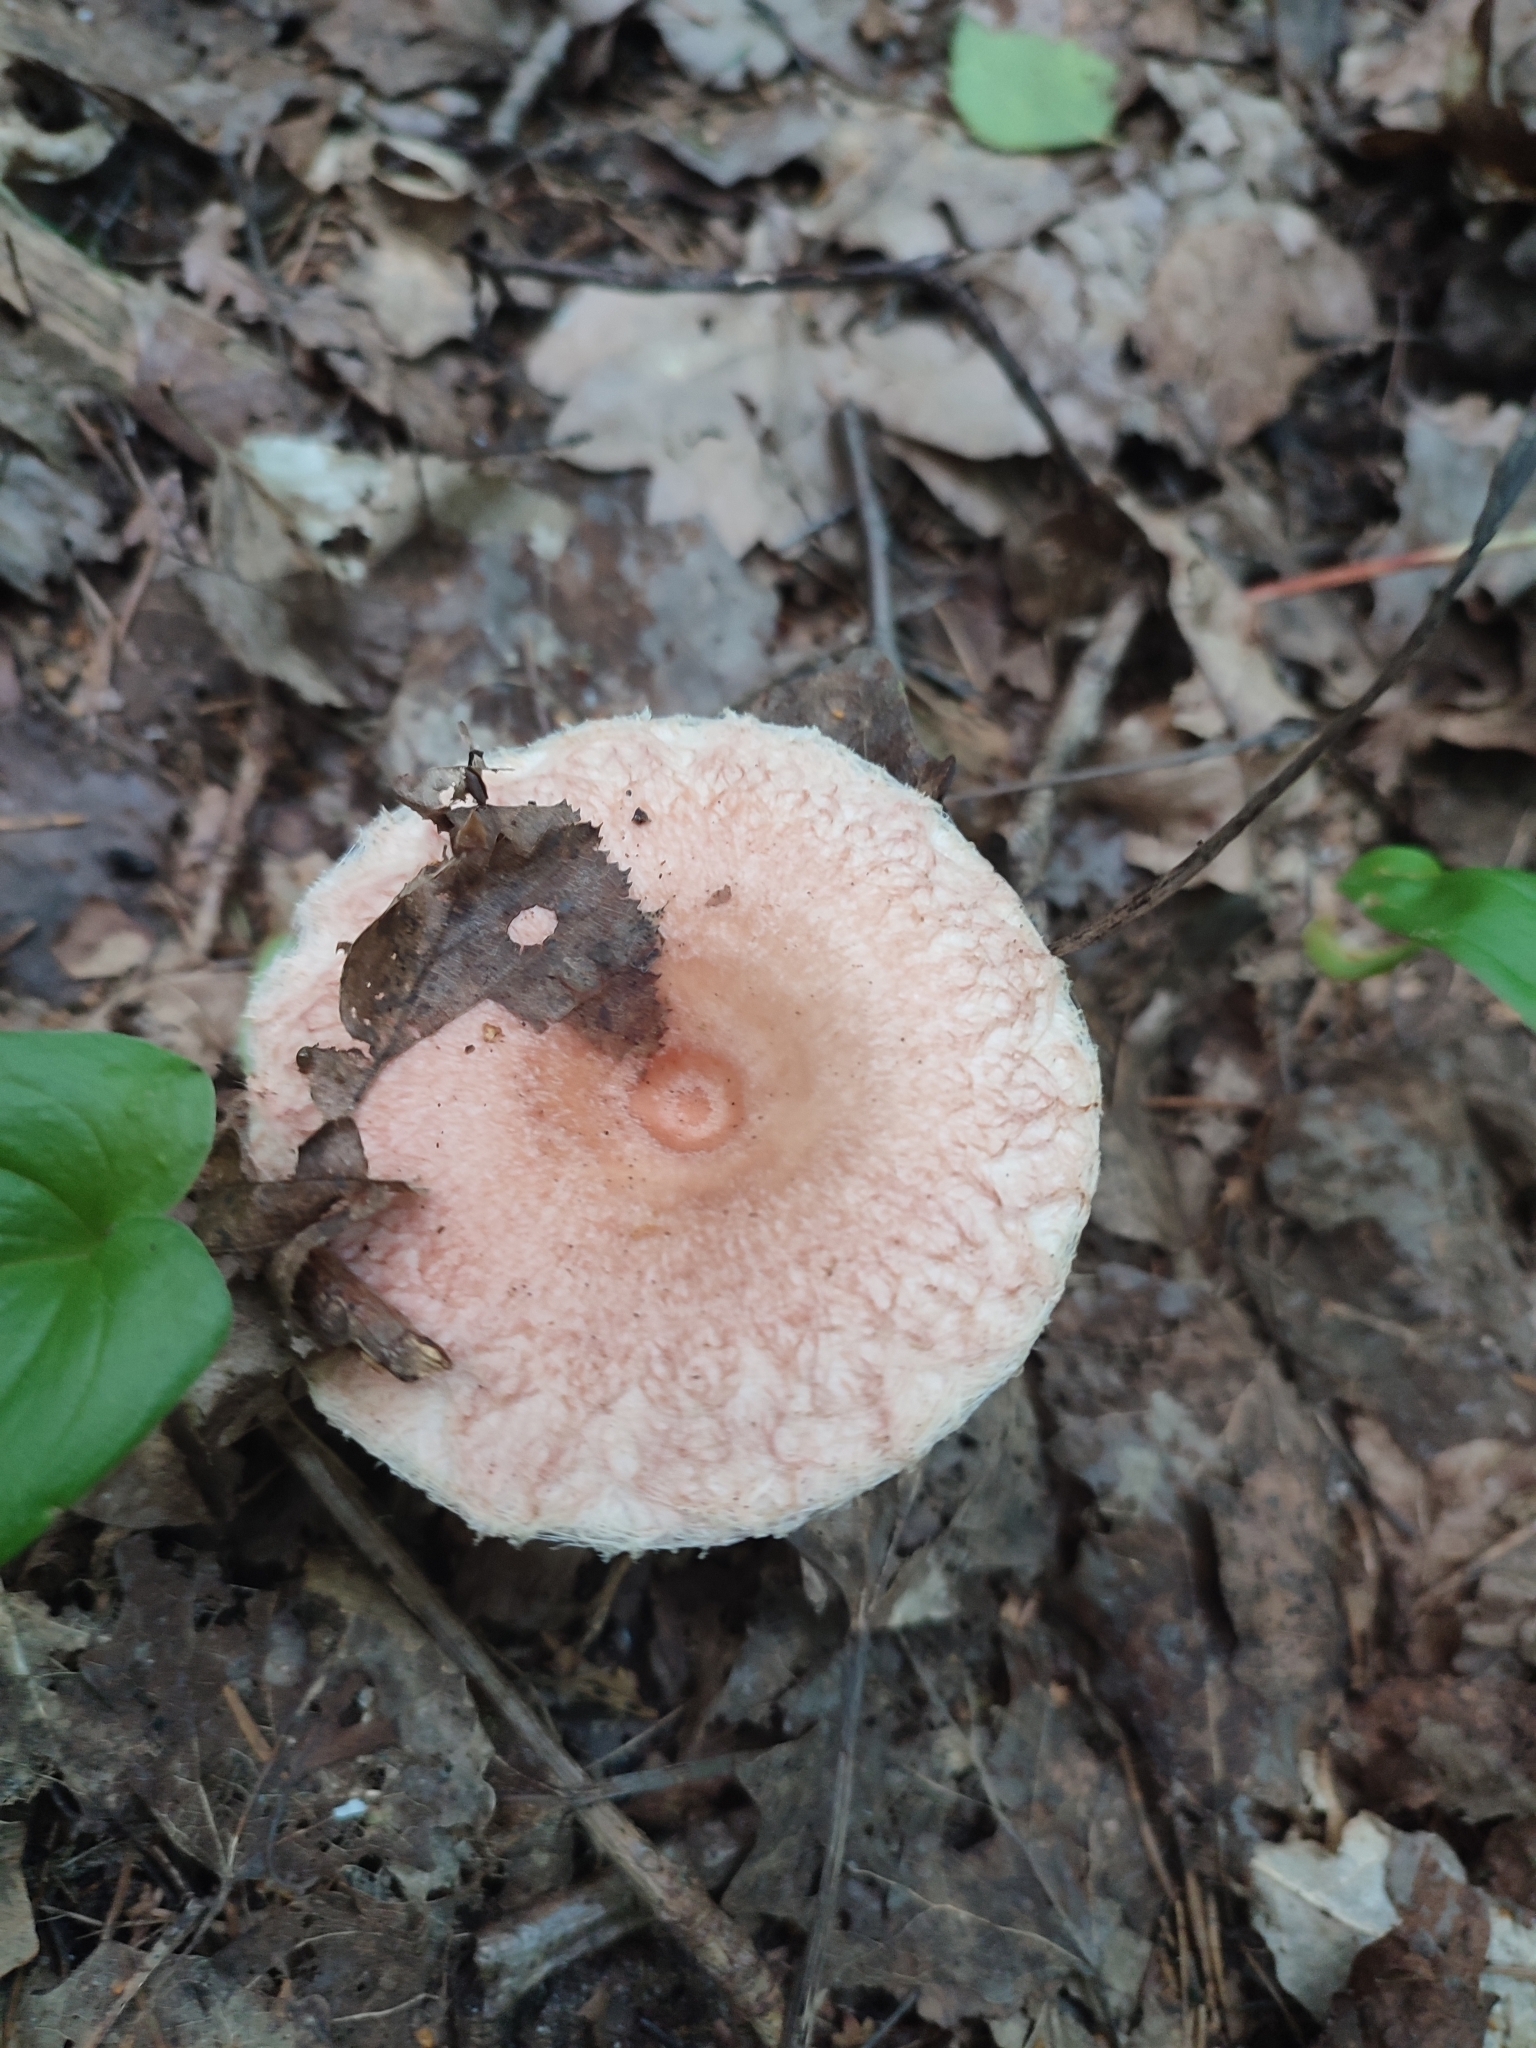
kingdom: Fungi
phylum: Basidiomycota
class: Agaricomycetes
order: Russulales
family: Russulaceae
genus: Lactarius
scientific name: Lactarius torminosus
